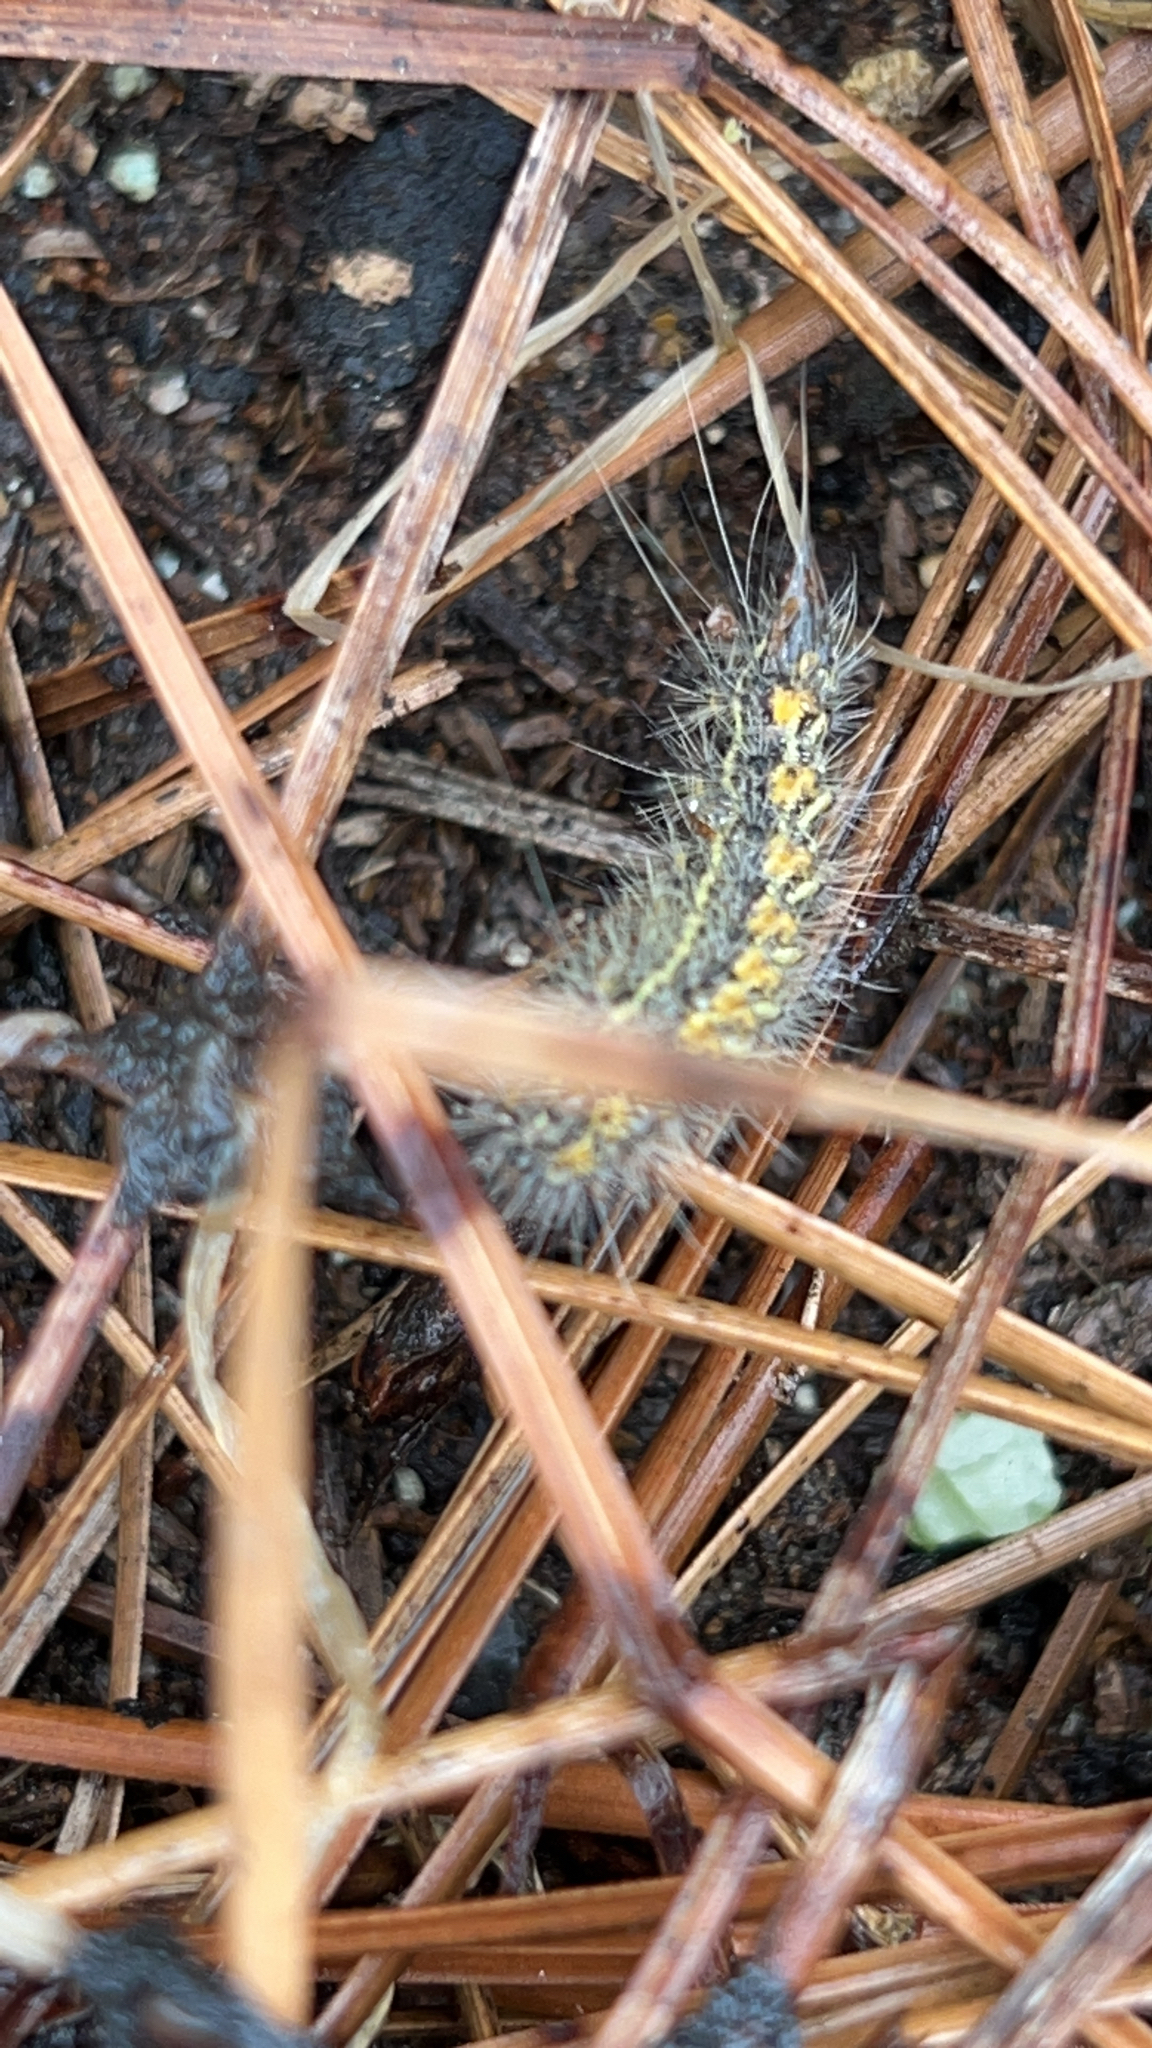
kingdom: Animalia
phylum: Arthropoda
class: Insecta
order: Lepidoptera
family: Erebidae
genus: Estigmene
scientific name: Estigmene acrea
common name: Salt marsh moth
